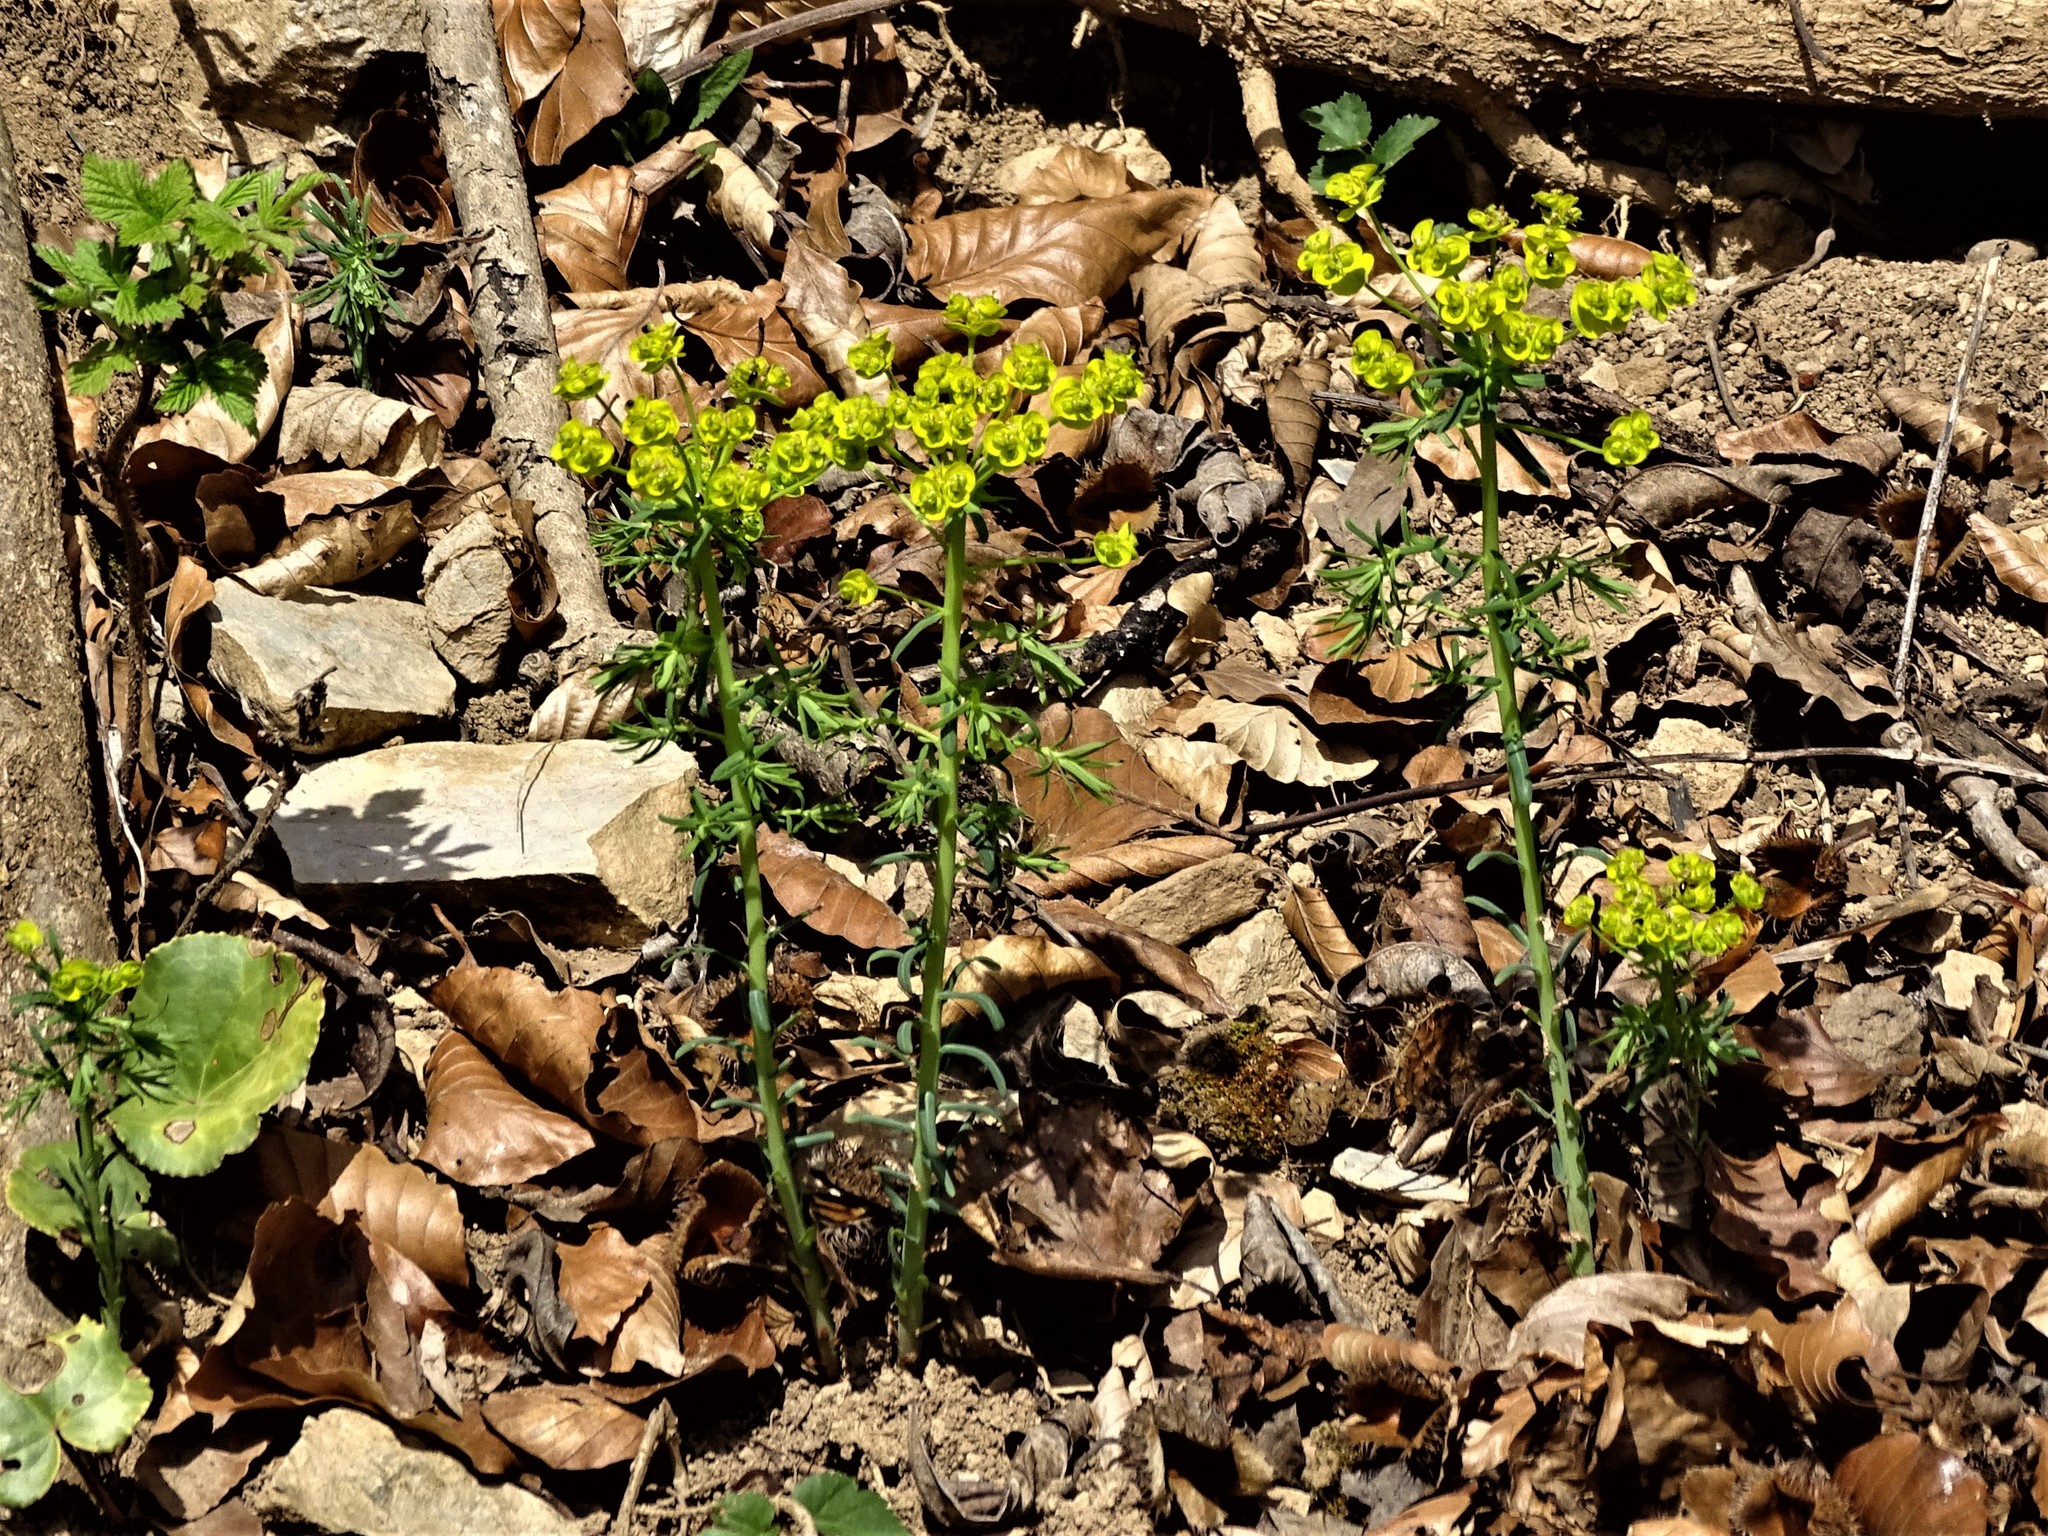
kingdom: Plantae
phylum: Tracheophyta
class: Magnoliopsida
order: Malpighiales
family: Euphorbiaceae
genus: Euphorbia
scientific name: Euphorbia cyparissias
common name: Cypress spurge
